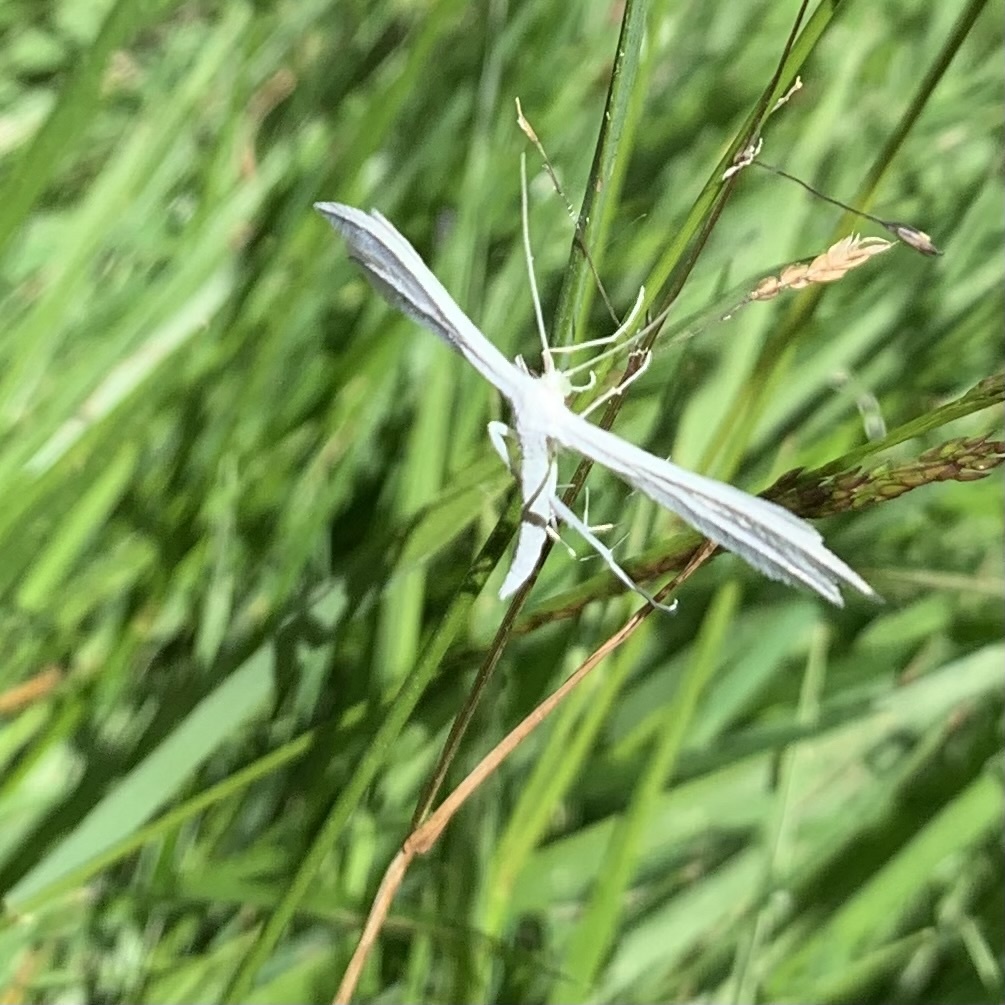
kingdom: Animalia
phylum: Arthropoda
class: Insecta
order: Lepidoptera
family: Pterophoridae
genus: Pterophorus
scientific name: Pterophorus pentadactyla
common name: White plume moth
